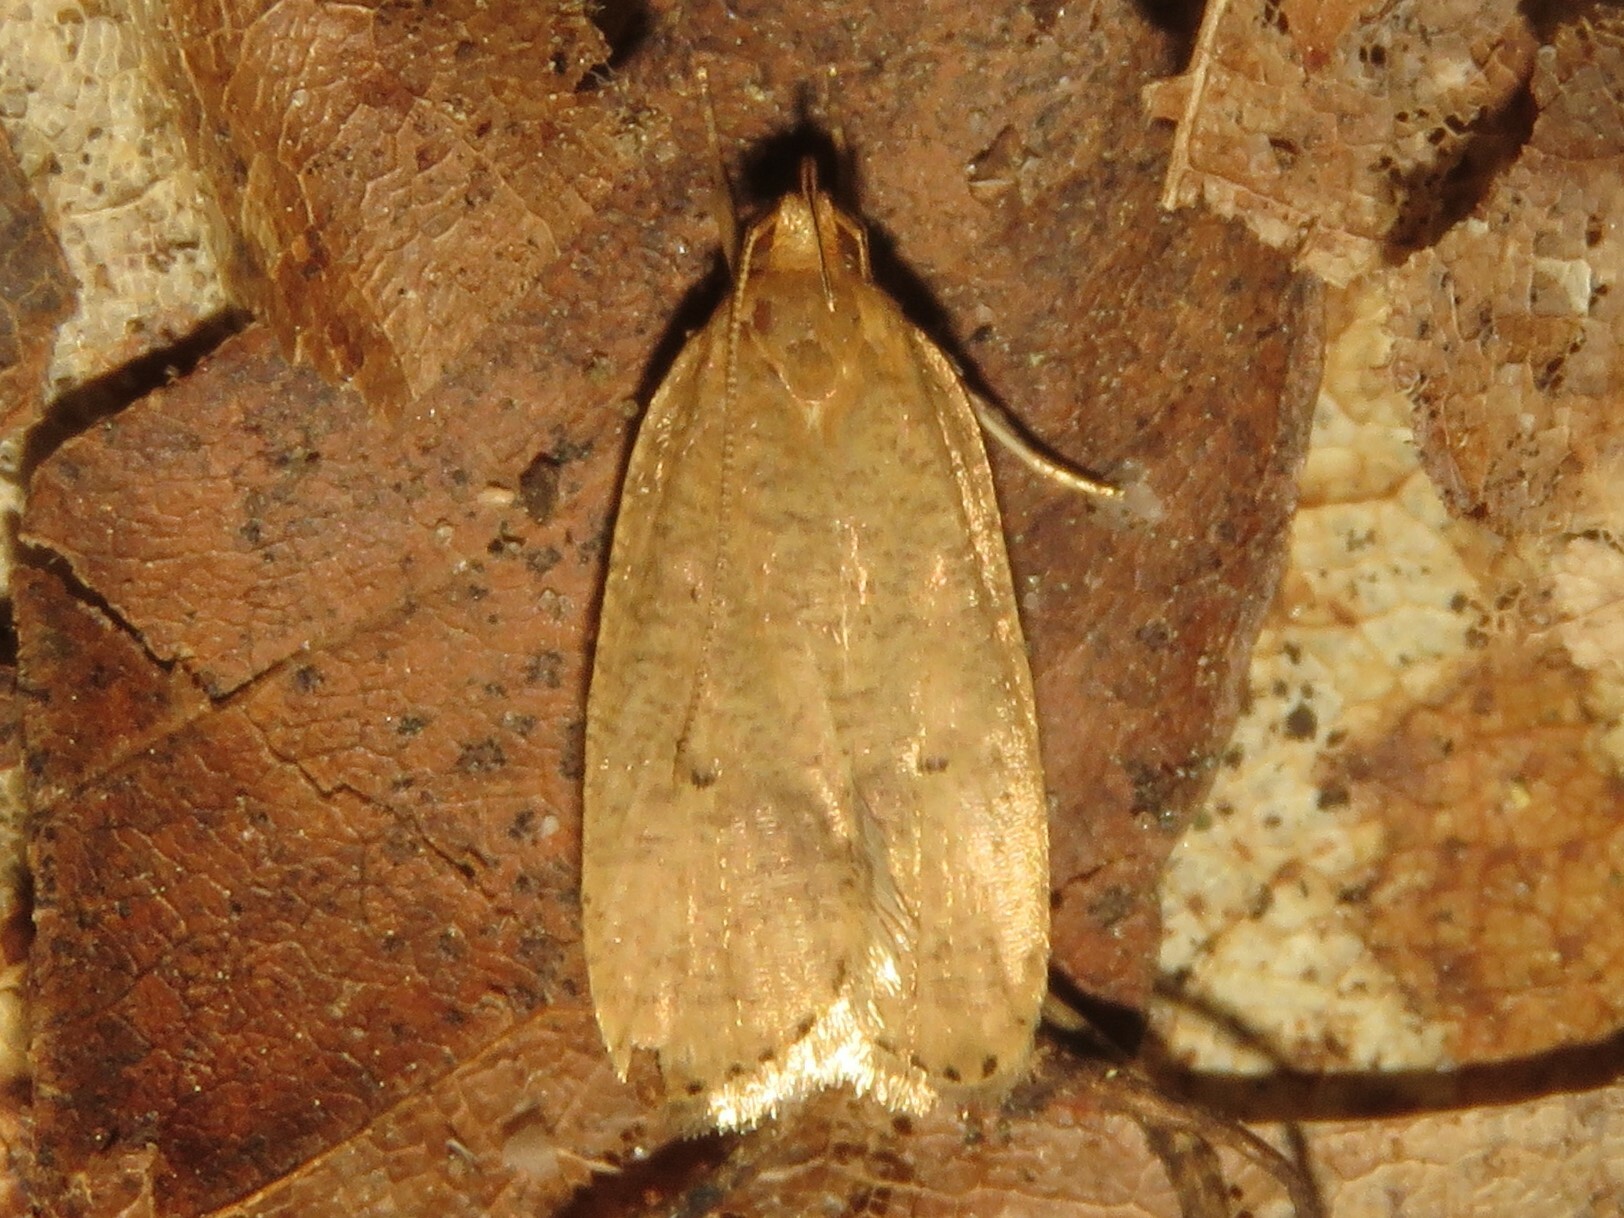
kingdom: Animalia
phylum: Arthropoda
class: Insecta
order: Lepidoptera
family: Depressariidae
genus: Psilocorsis
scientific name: Psilocorsis reflexella
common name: Dotted leaftier moth
